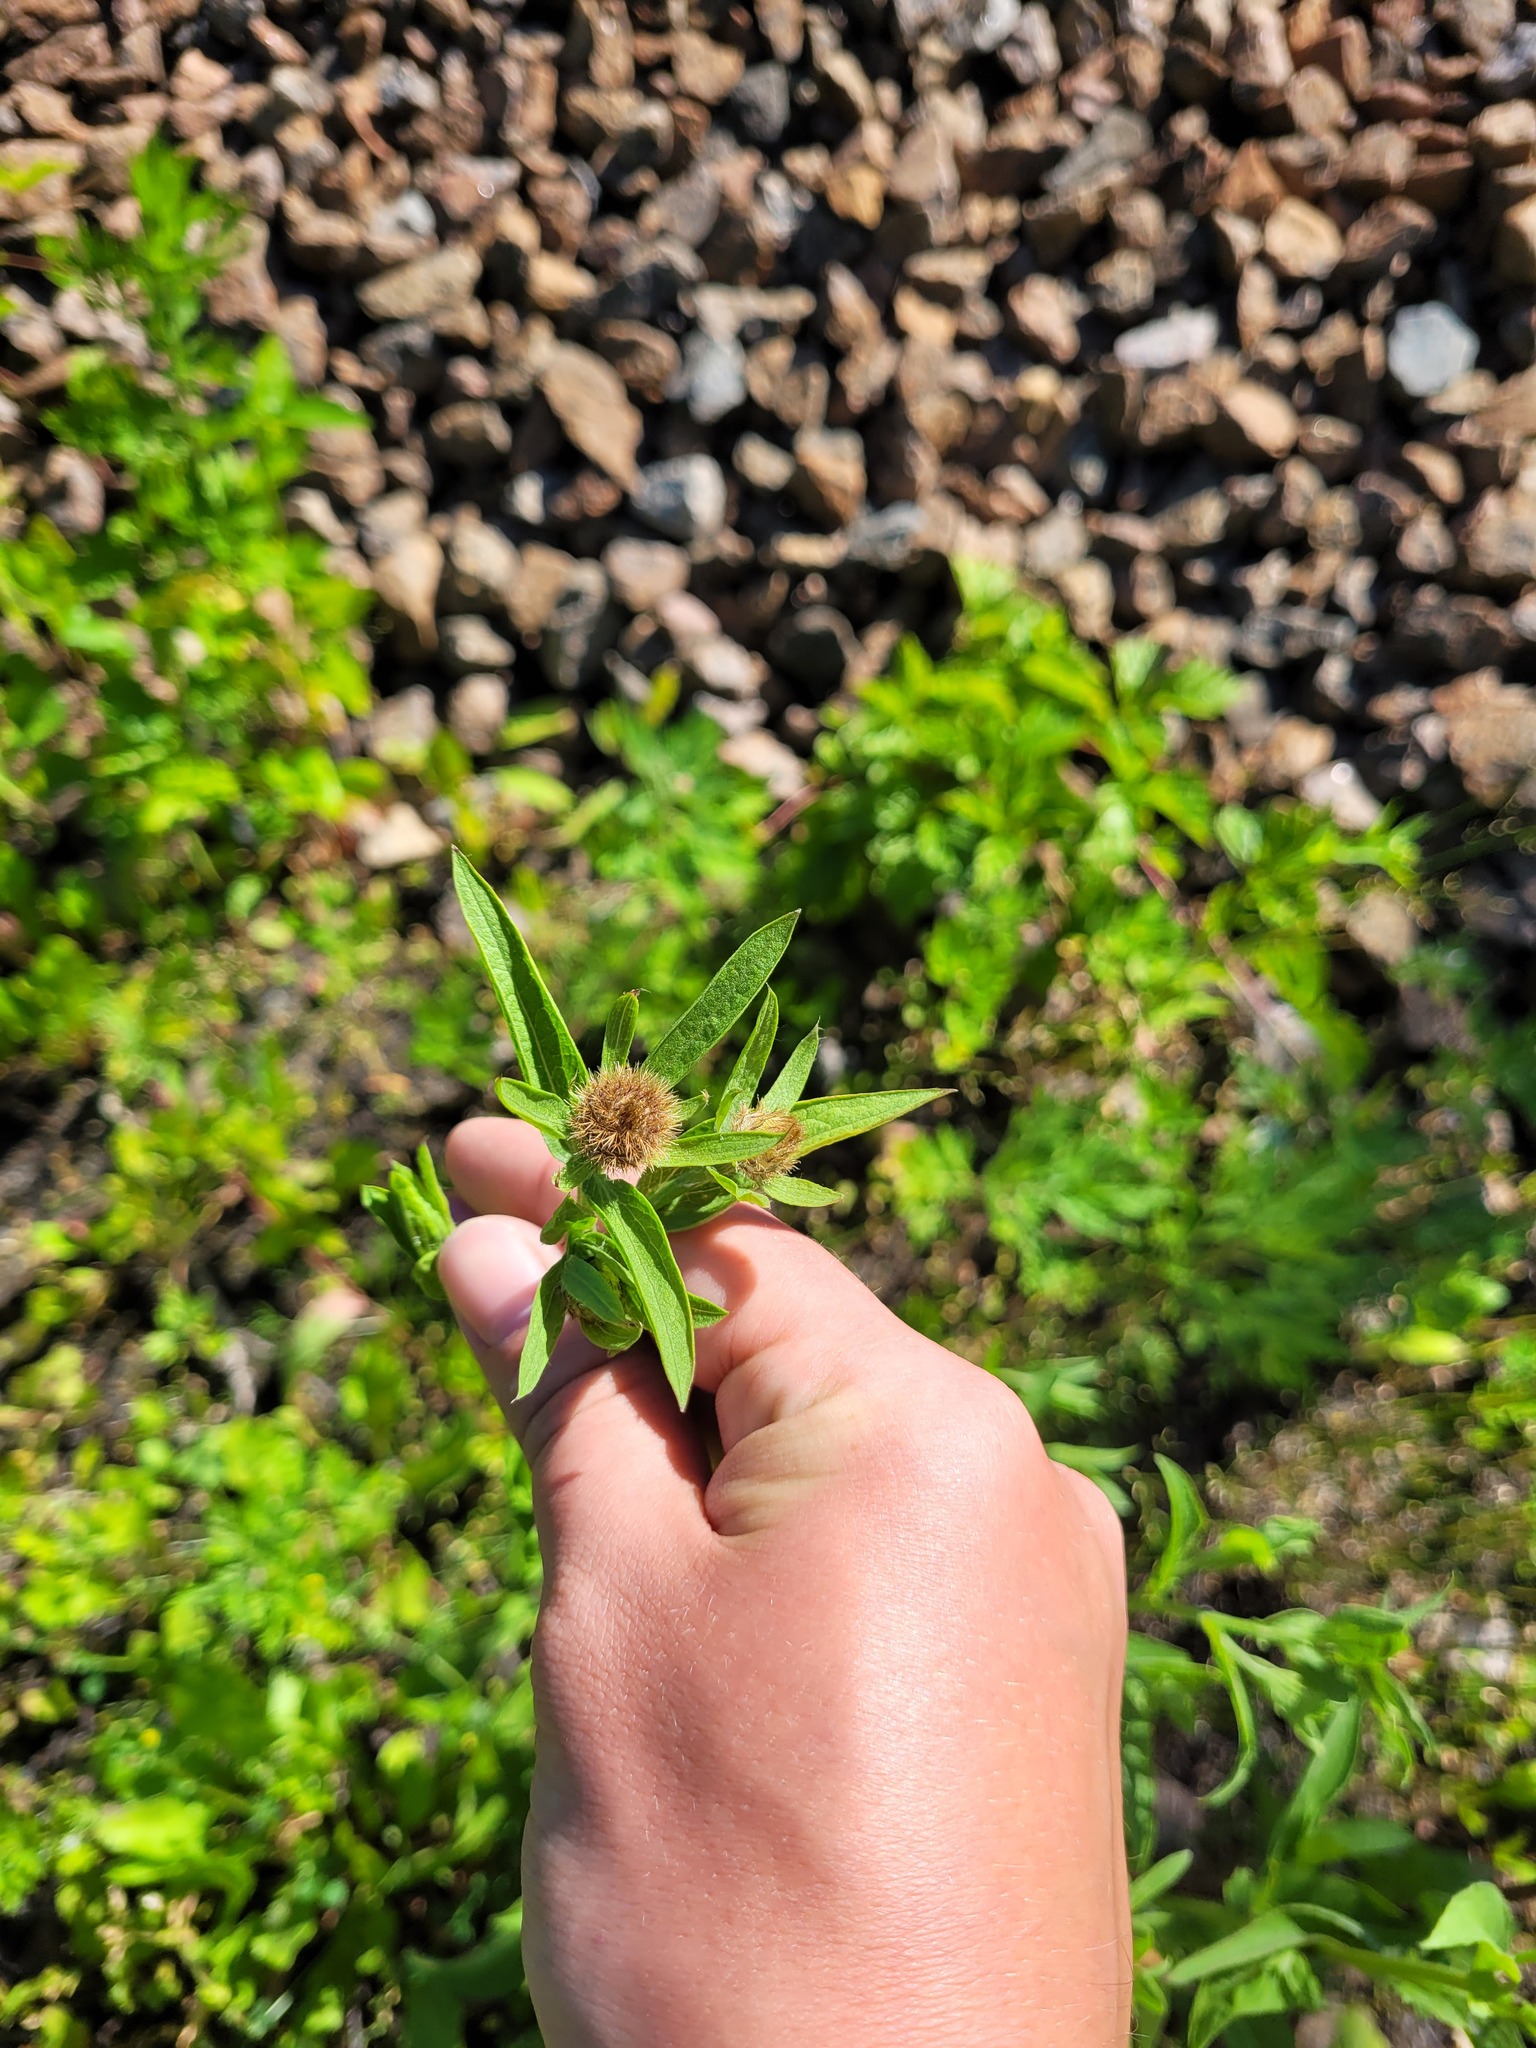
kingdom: Plantae
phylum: Tracheophyta
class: Magnoliopsida
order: Asterales
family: Asteraceae
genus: Centaurea
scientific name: Centaurea pseudophrygia
